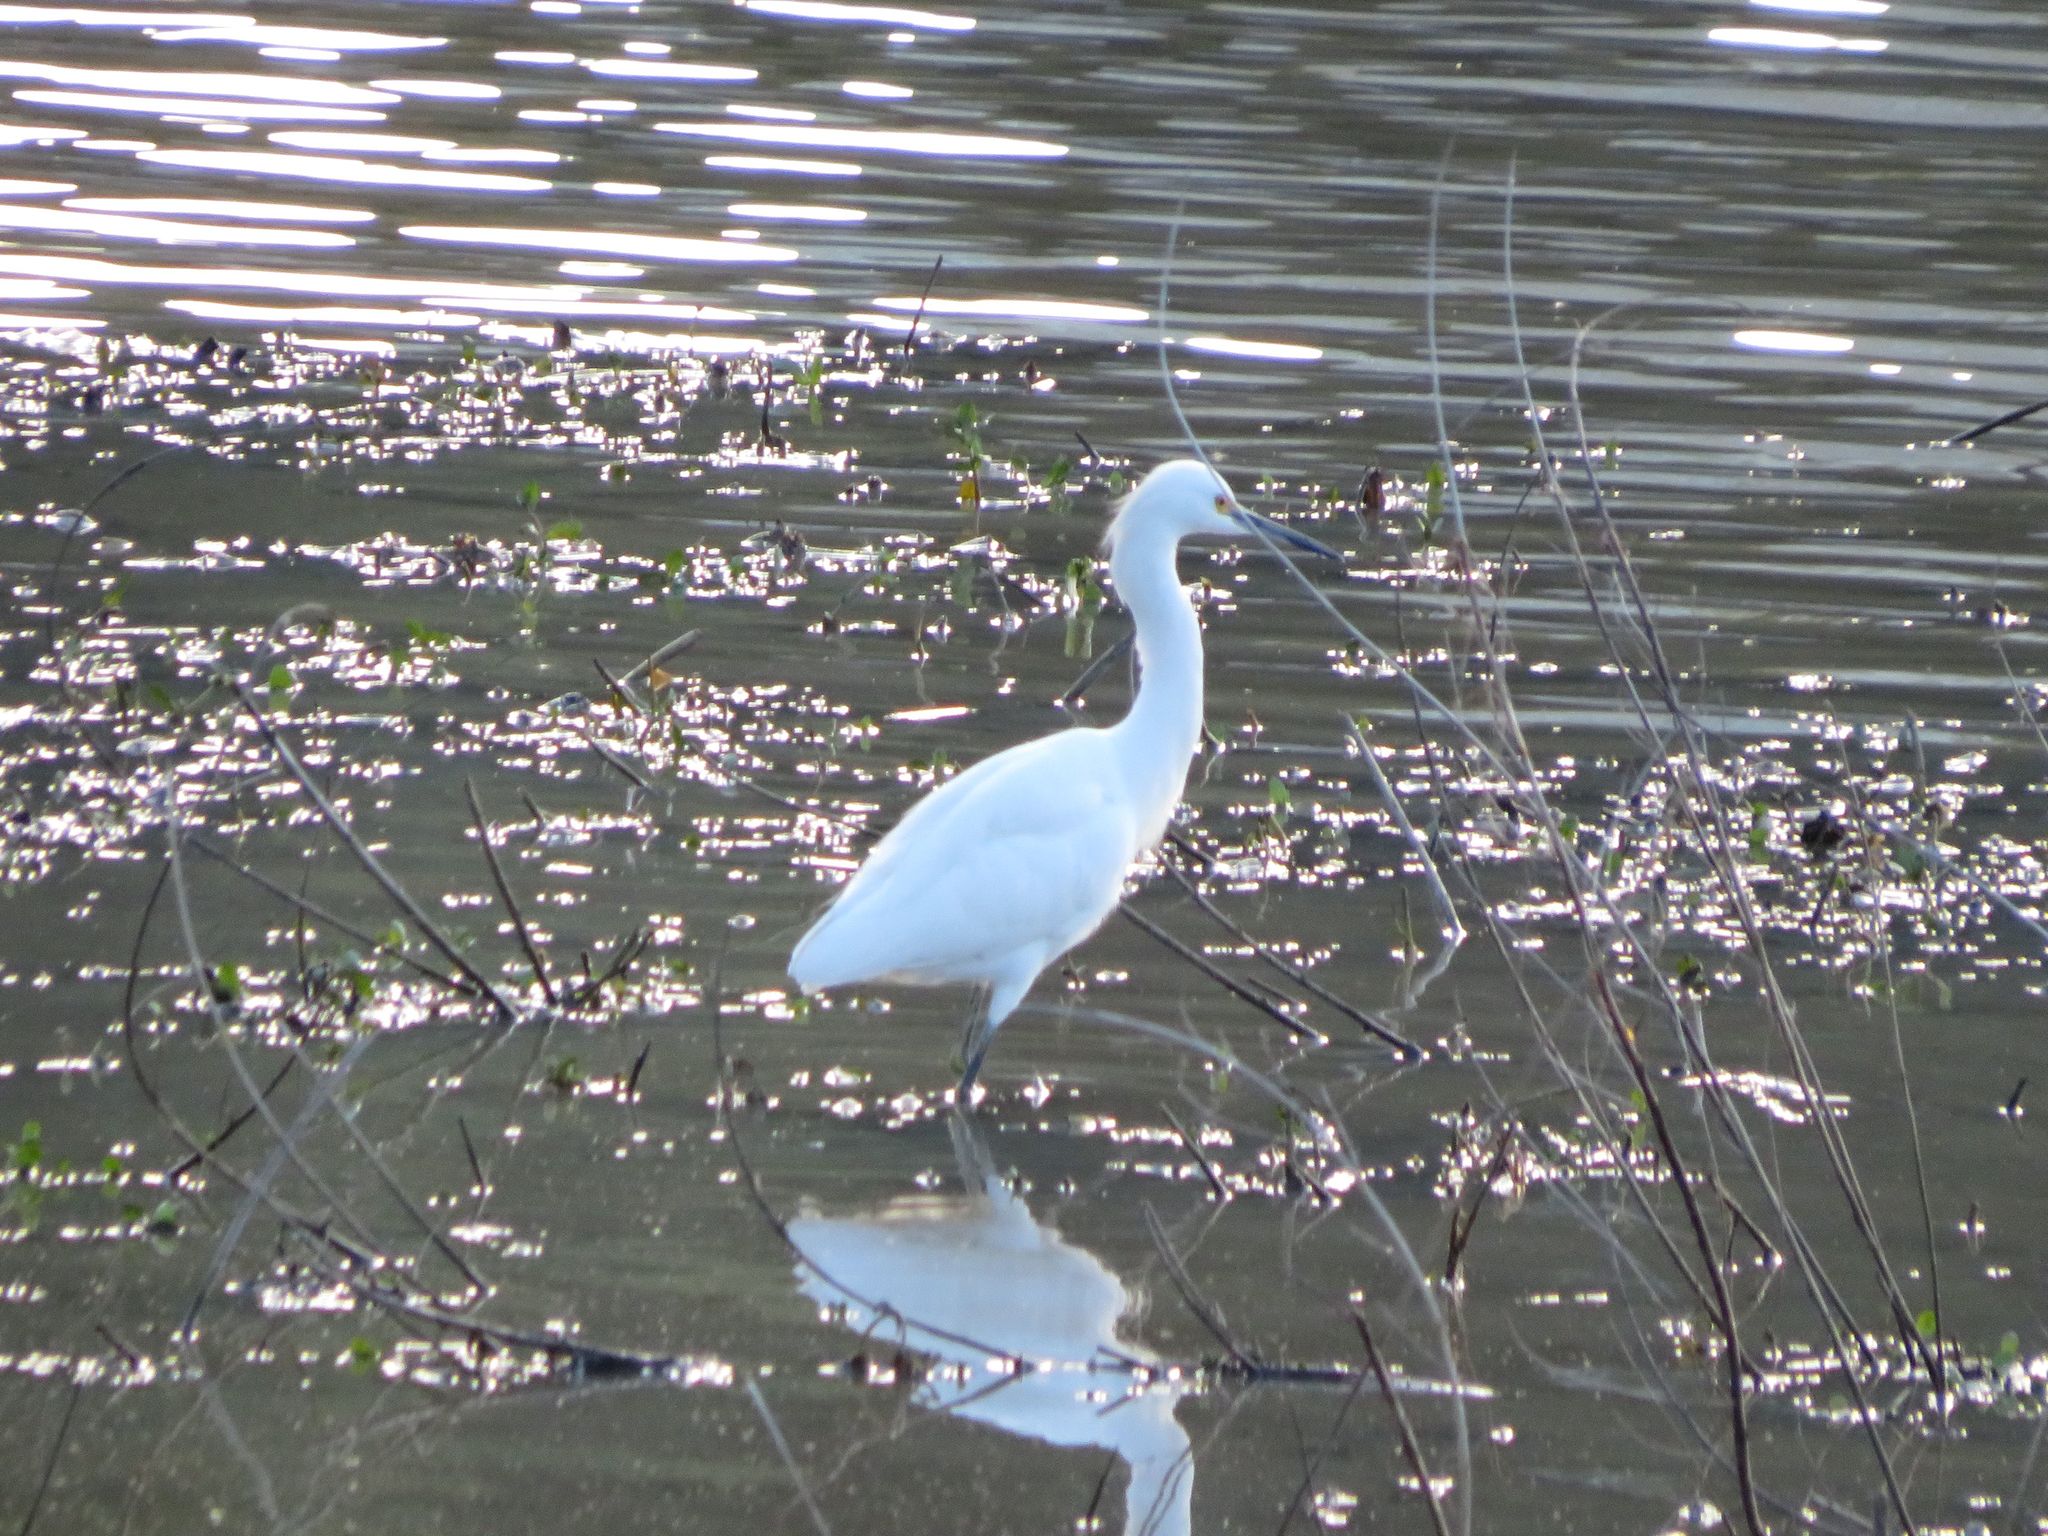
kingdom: Animalia
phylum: Chordata
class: Aves
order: Pelecaniformes
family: Ardeidae
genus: Egretta
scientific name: Egretta thula
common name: Snowy egret
